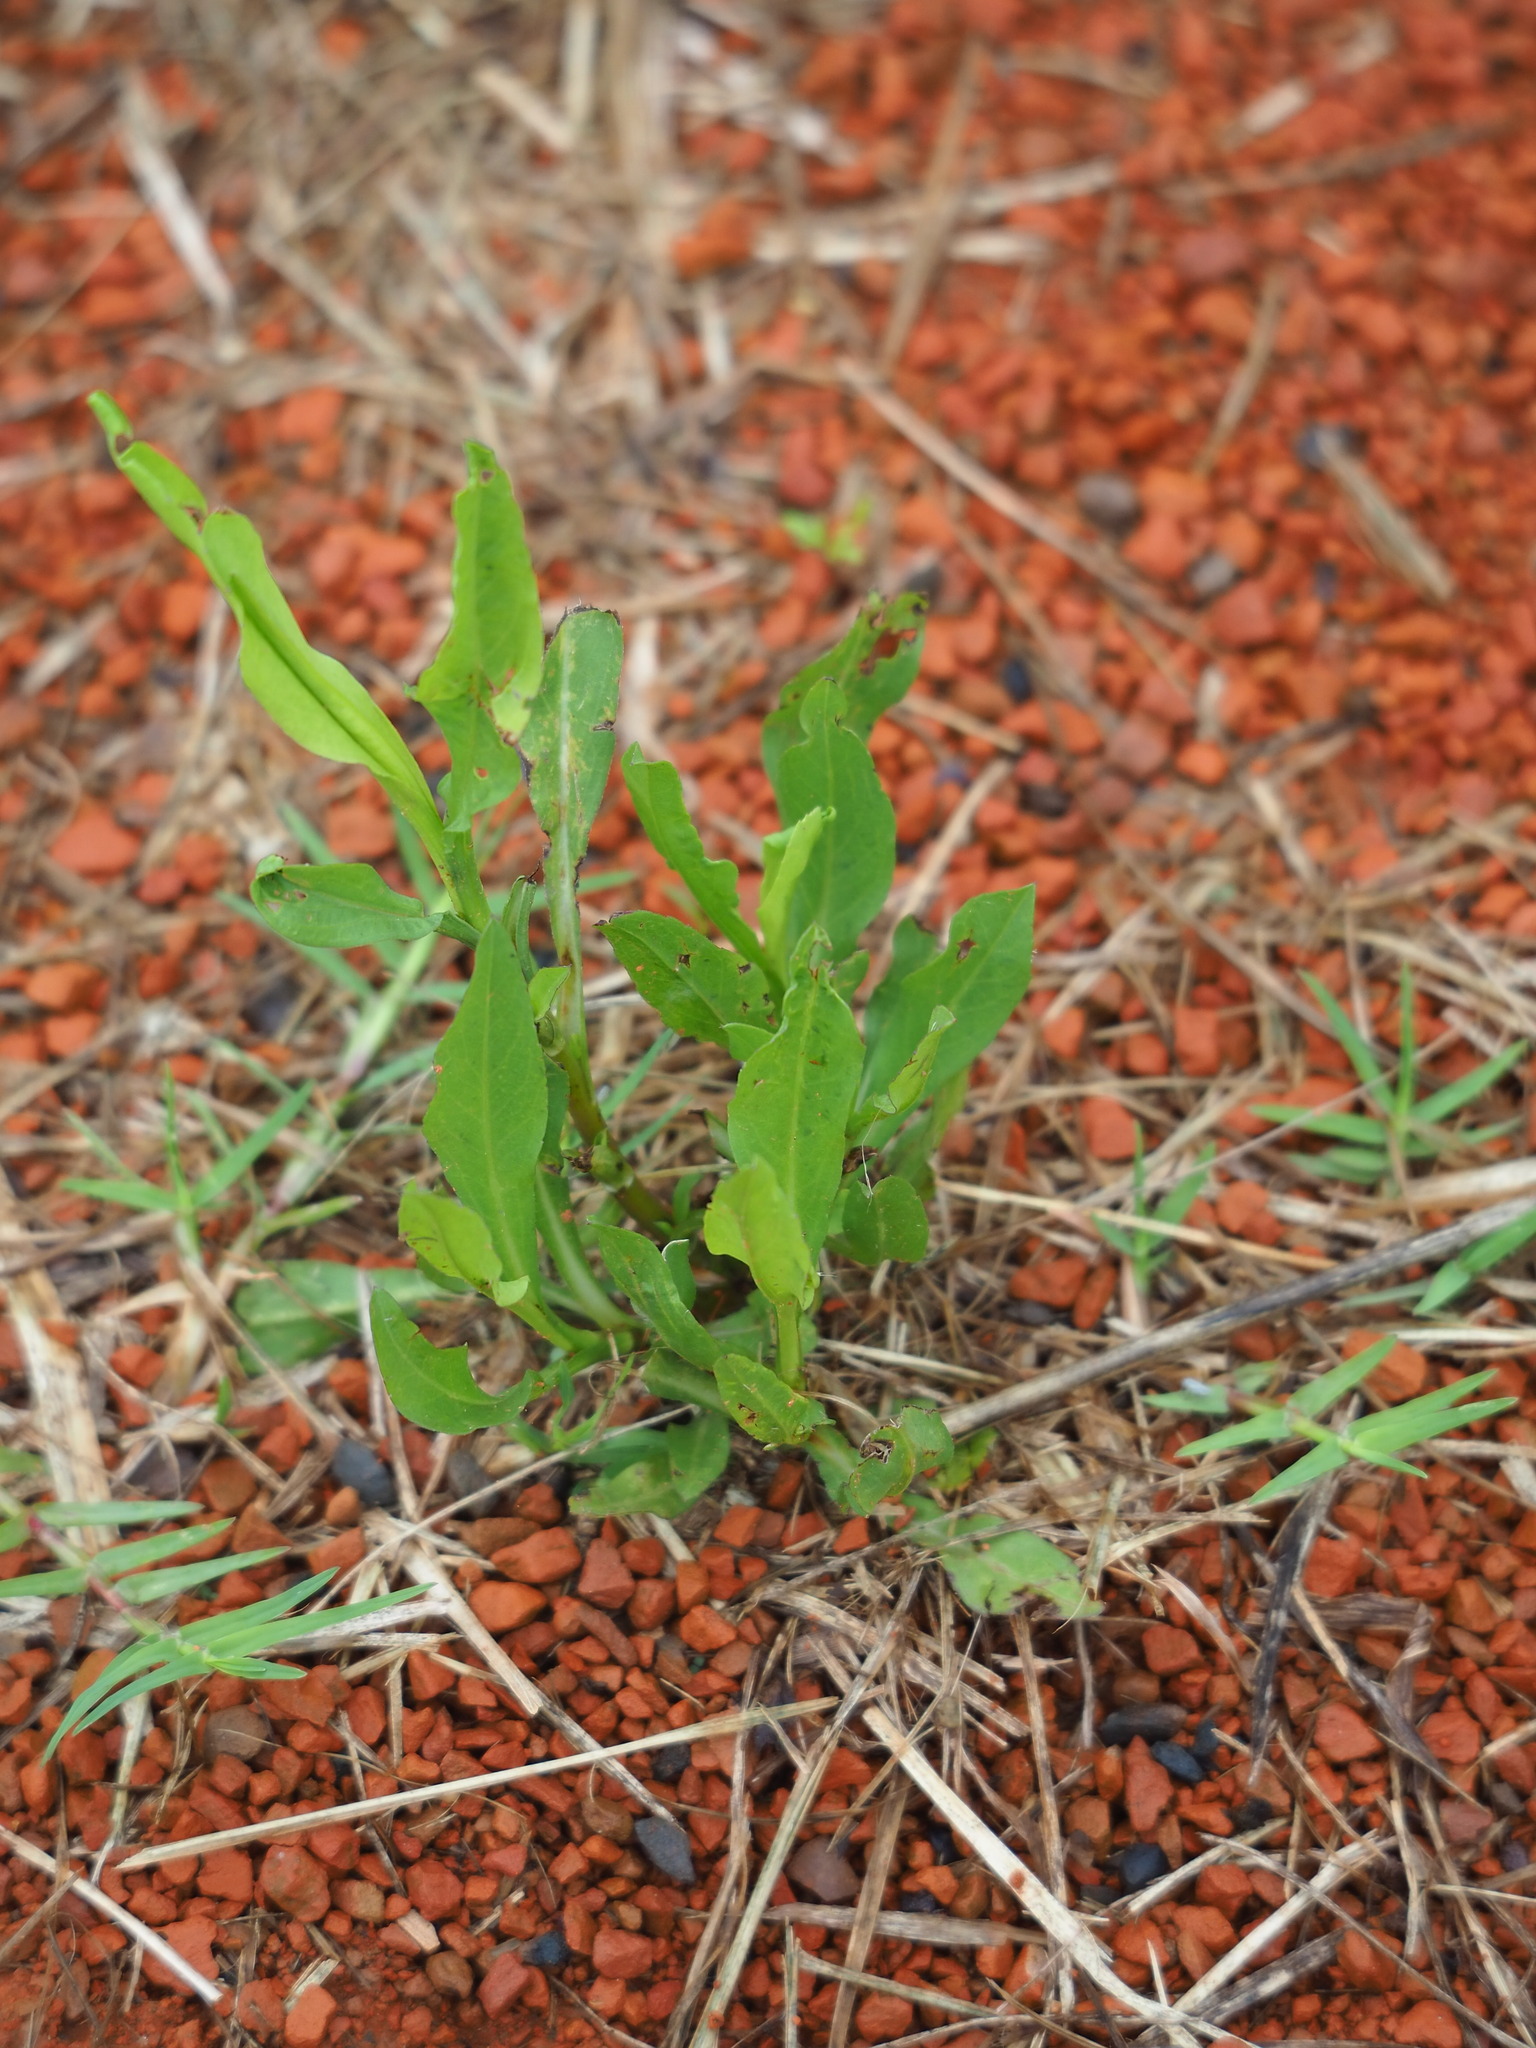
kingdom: Plantae
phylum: Tracheophyta
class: Magnoliopsida
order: Asterales
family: Asteraceae
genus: Symphyotrichum
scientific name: Symphyotrichum subulatum
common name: Annual saltmarsh aster
